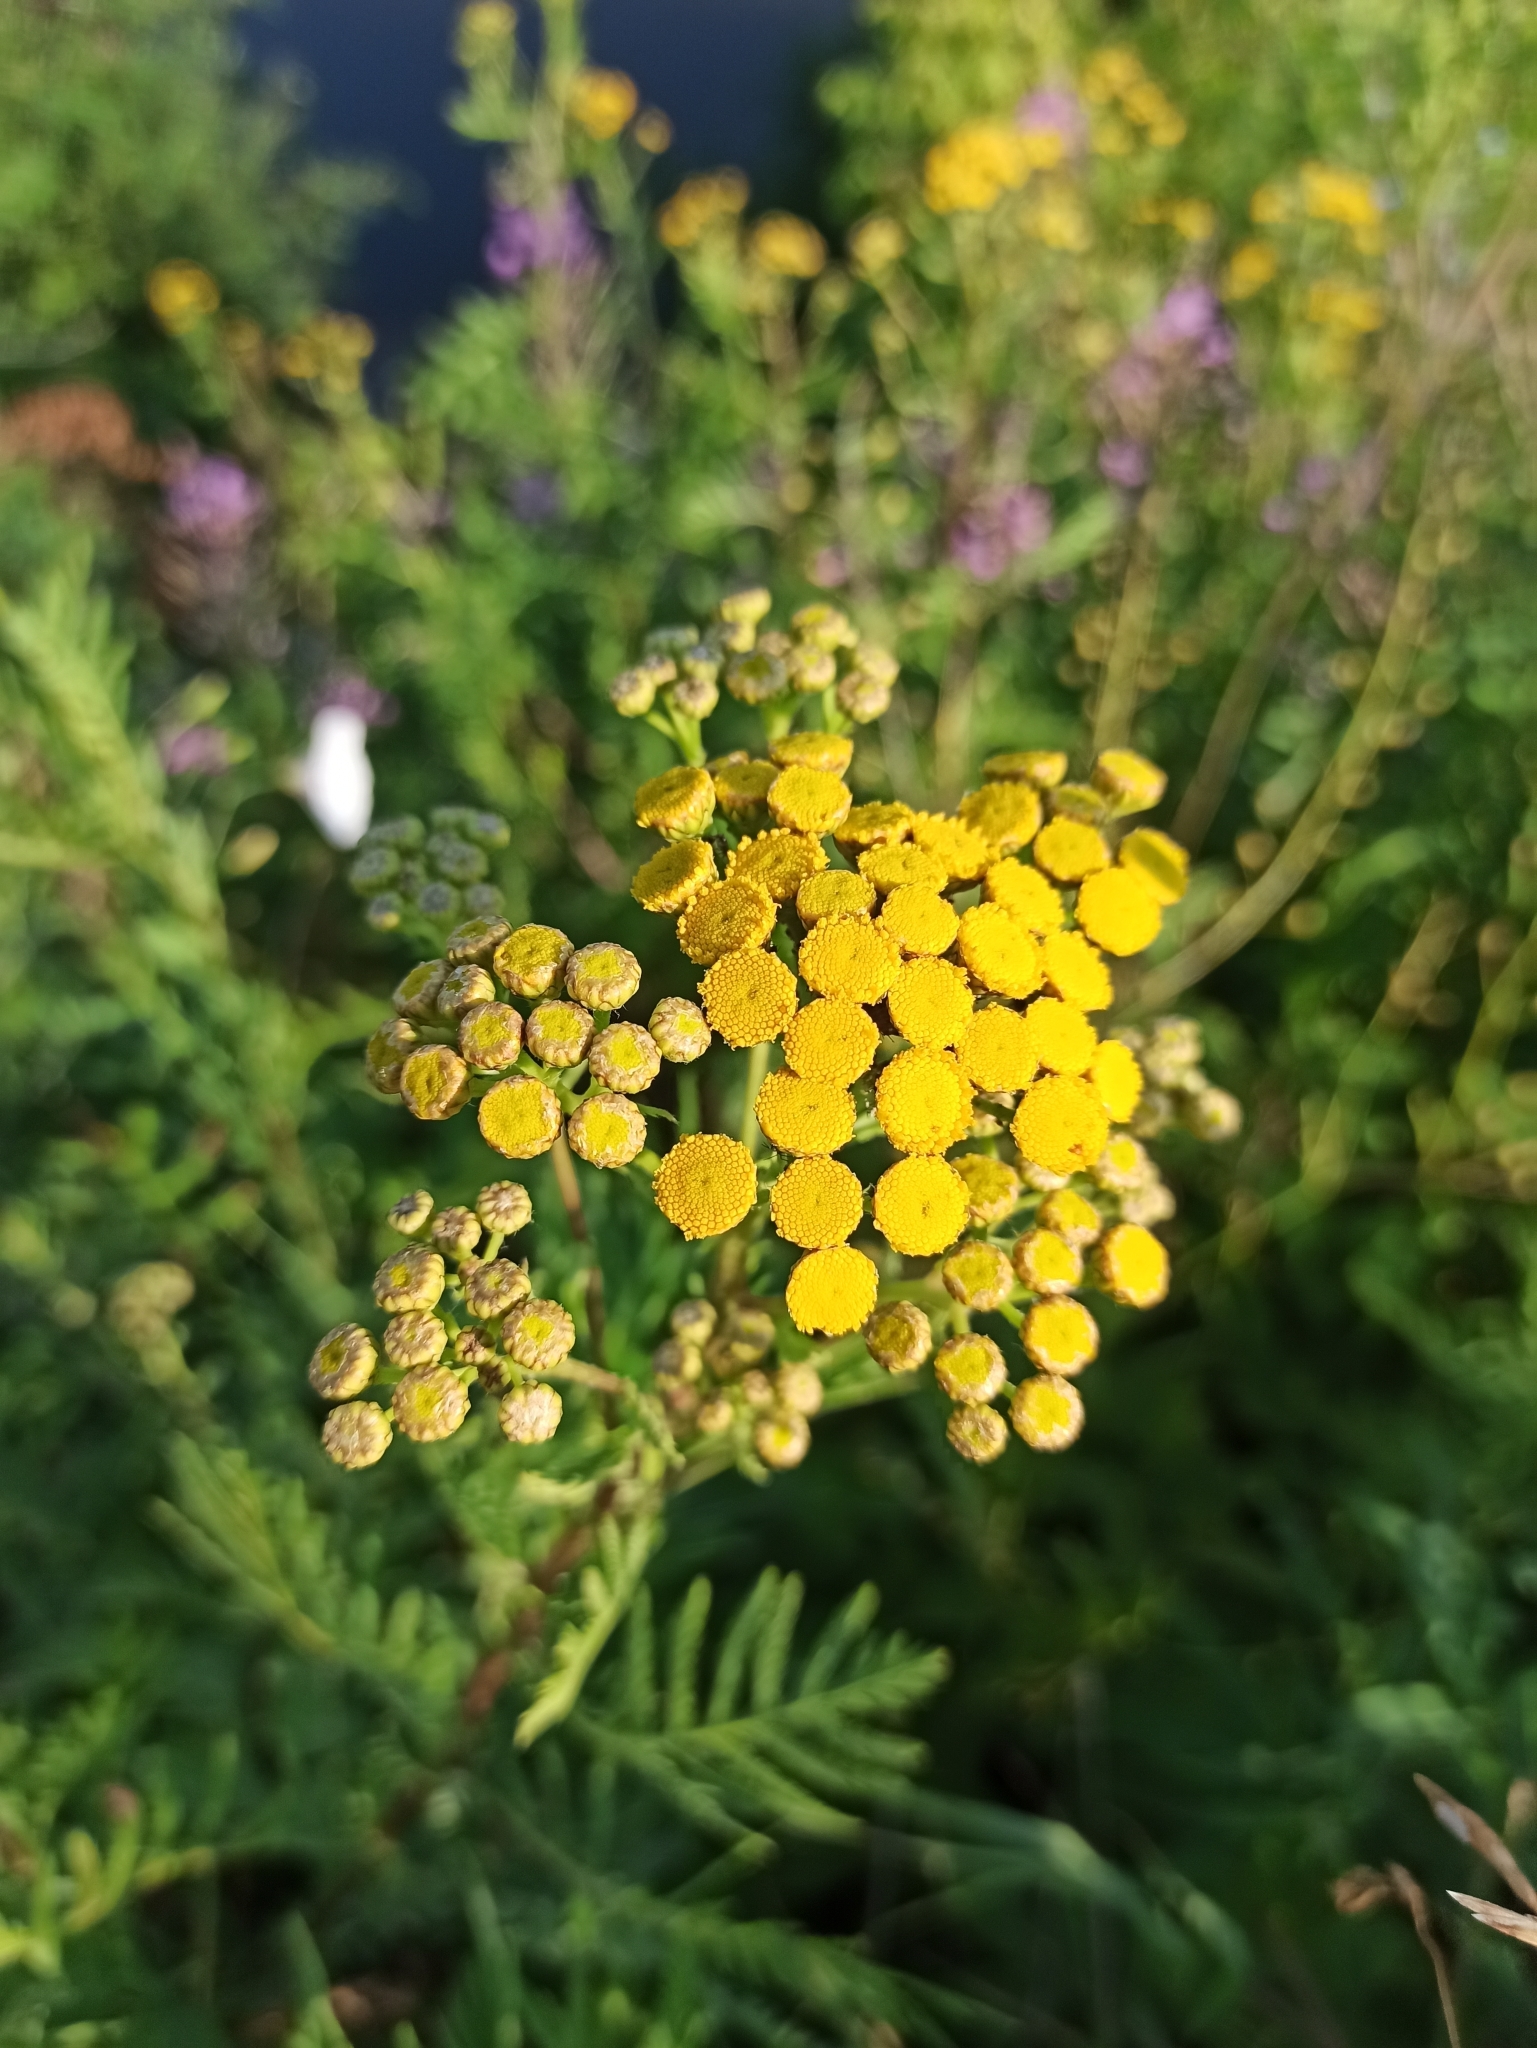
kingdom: Plantae
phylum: Tracheophyta
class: Magnoliopsida
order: Asterales
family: Asteraceae
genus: Tanacetum
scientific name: Tanacetum vulgare
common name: Common tansy
